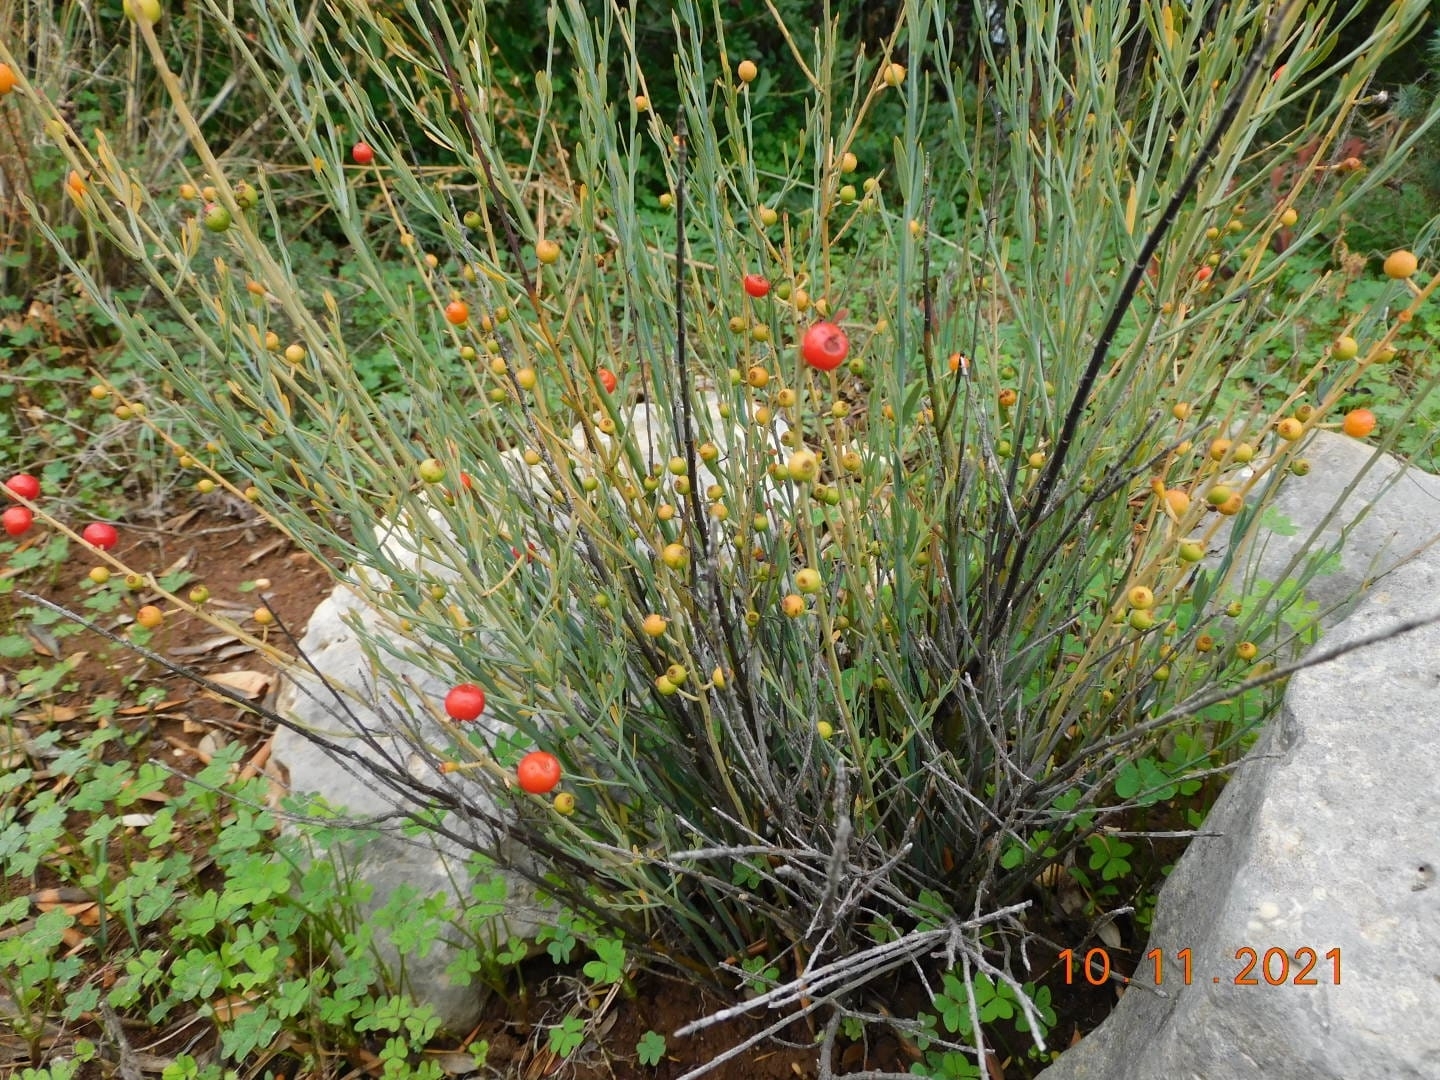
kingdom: Plantae
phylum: Tracheophyta
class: Magnoliopsida
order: Santalales
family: Santalaceae
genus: Osyris
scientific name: Osyris alba
